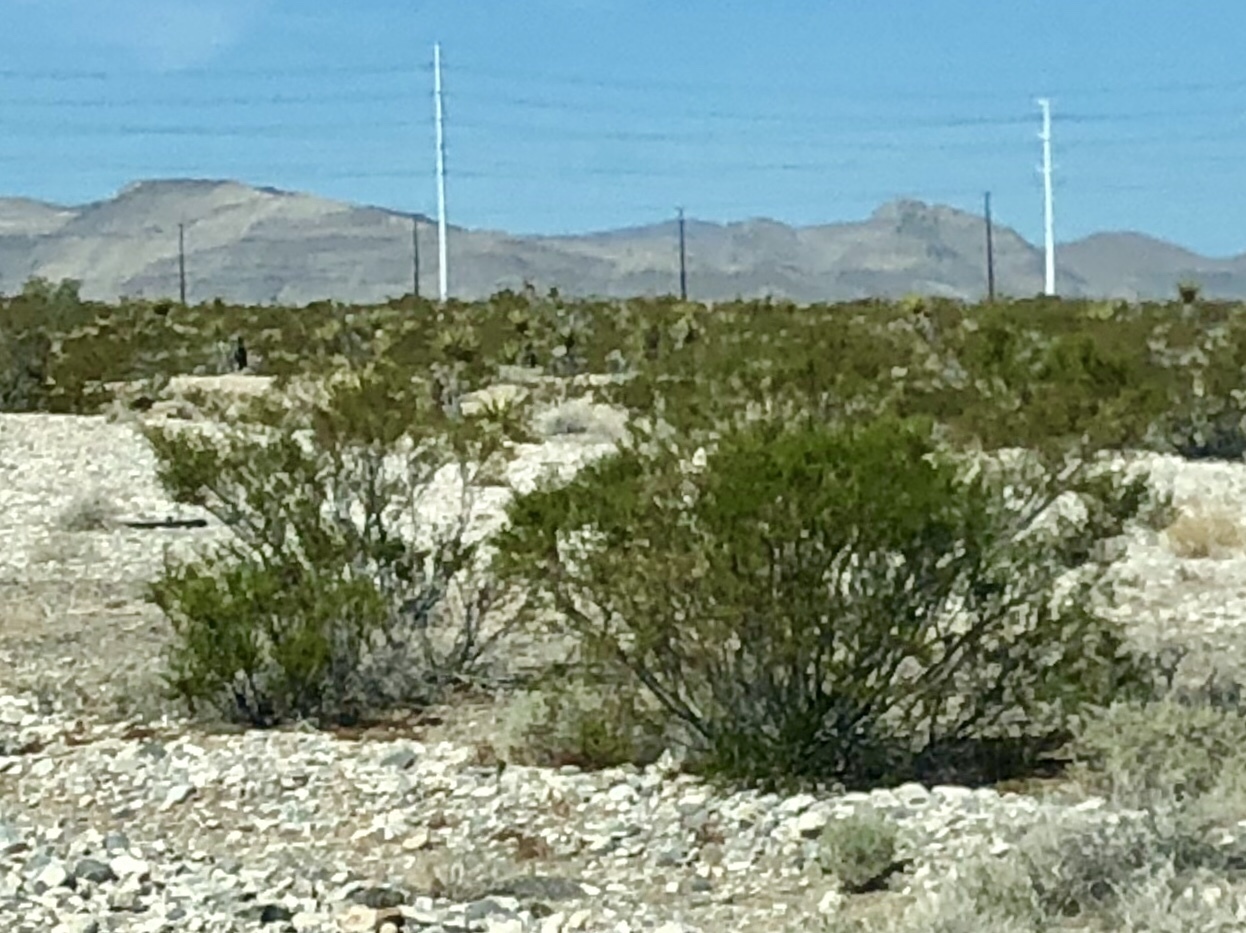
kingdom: Plantae
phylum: Tracheophyta
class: Magnoliopsida
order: Zygophyllales
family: Zygophyllaceae
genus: Larrea
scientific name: Larrea tridentata
